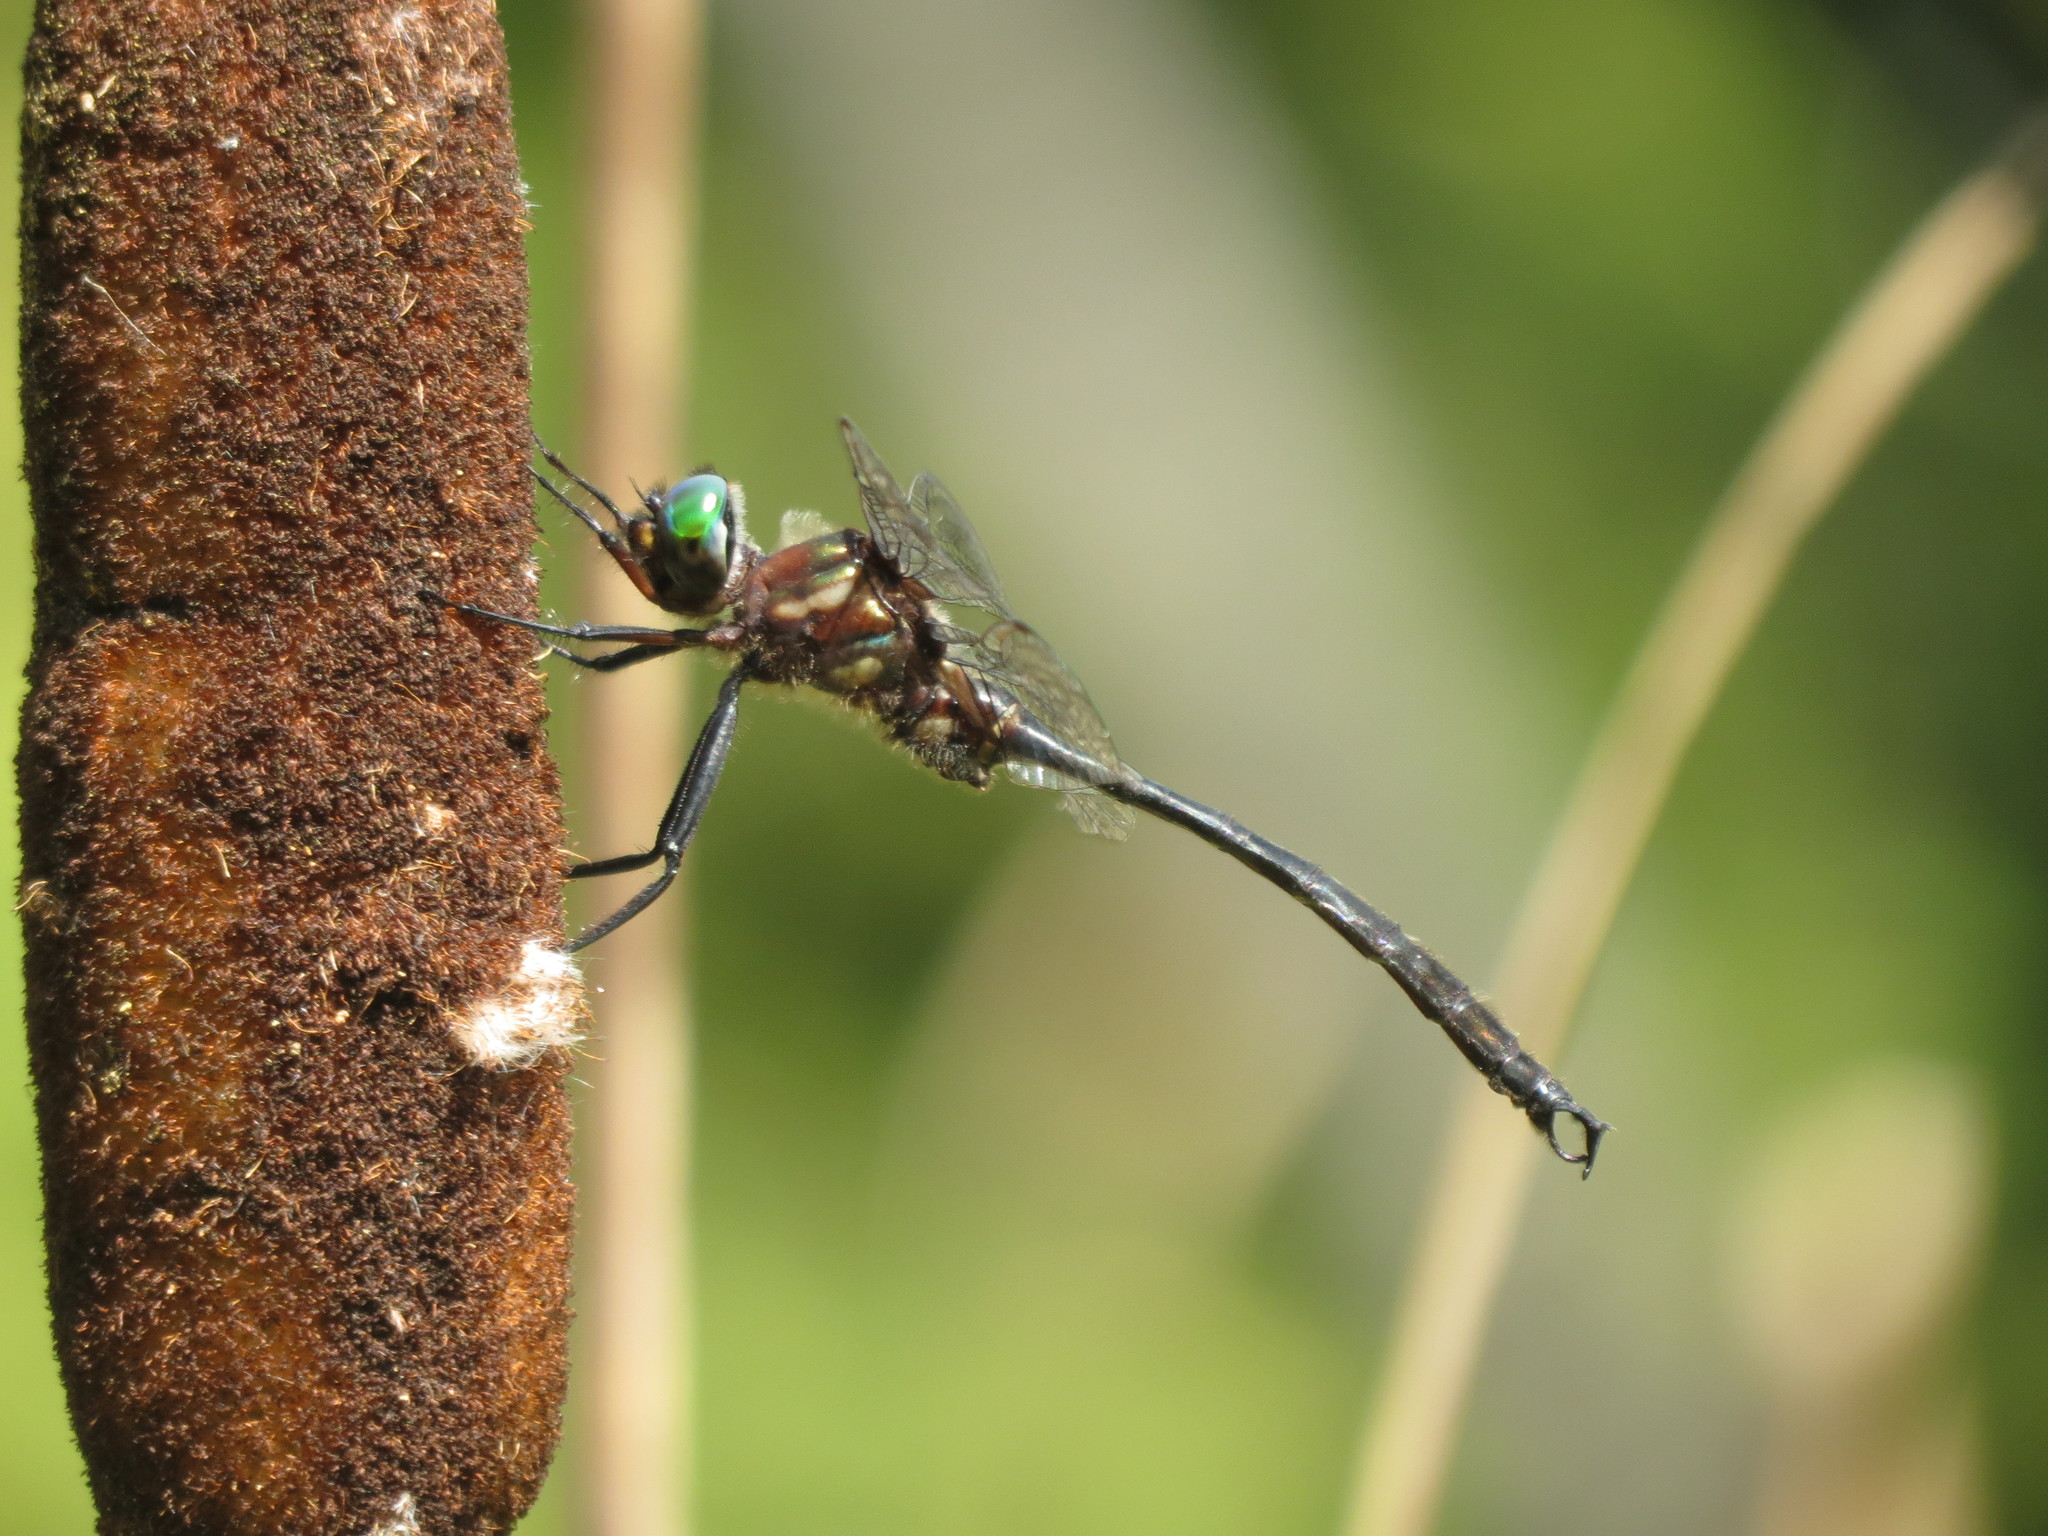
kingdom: Animalia
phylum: Arthropoda
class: Insecta
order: Odonata
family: Corduliidae
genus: Somatochlora
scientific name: Somatochlora tenebrosa
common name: Clamp-tipped emerald
